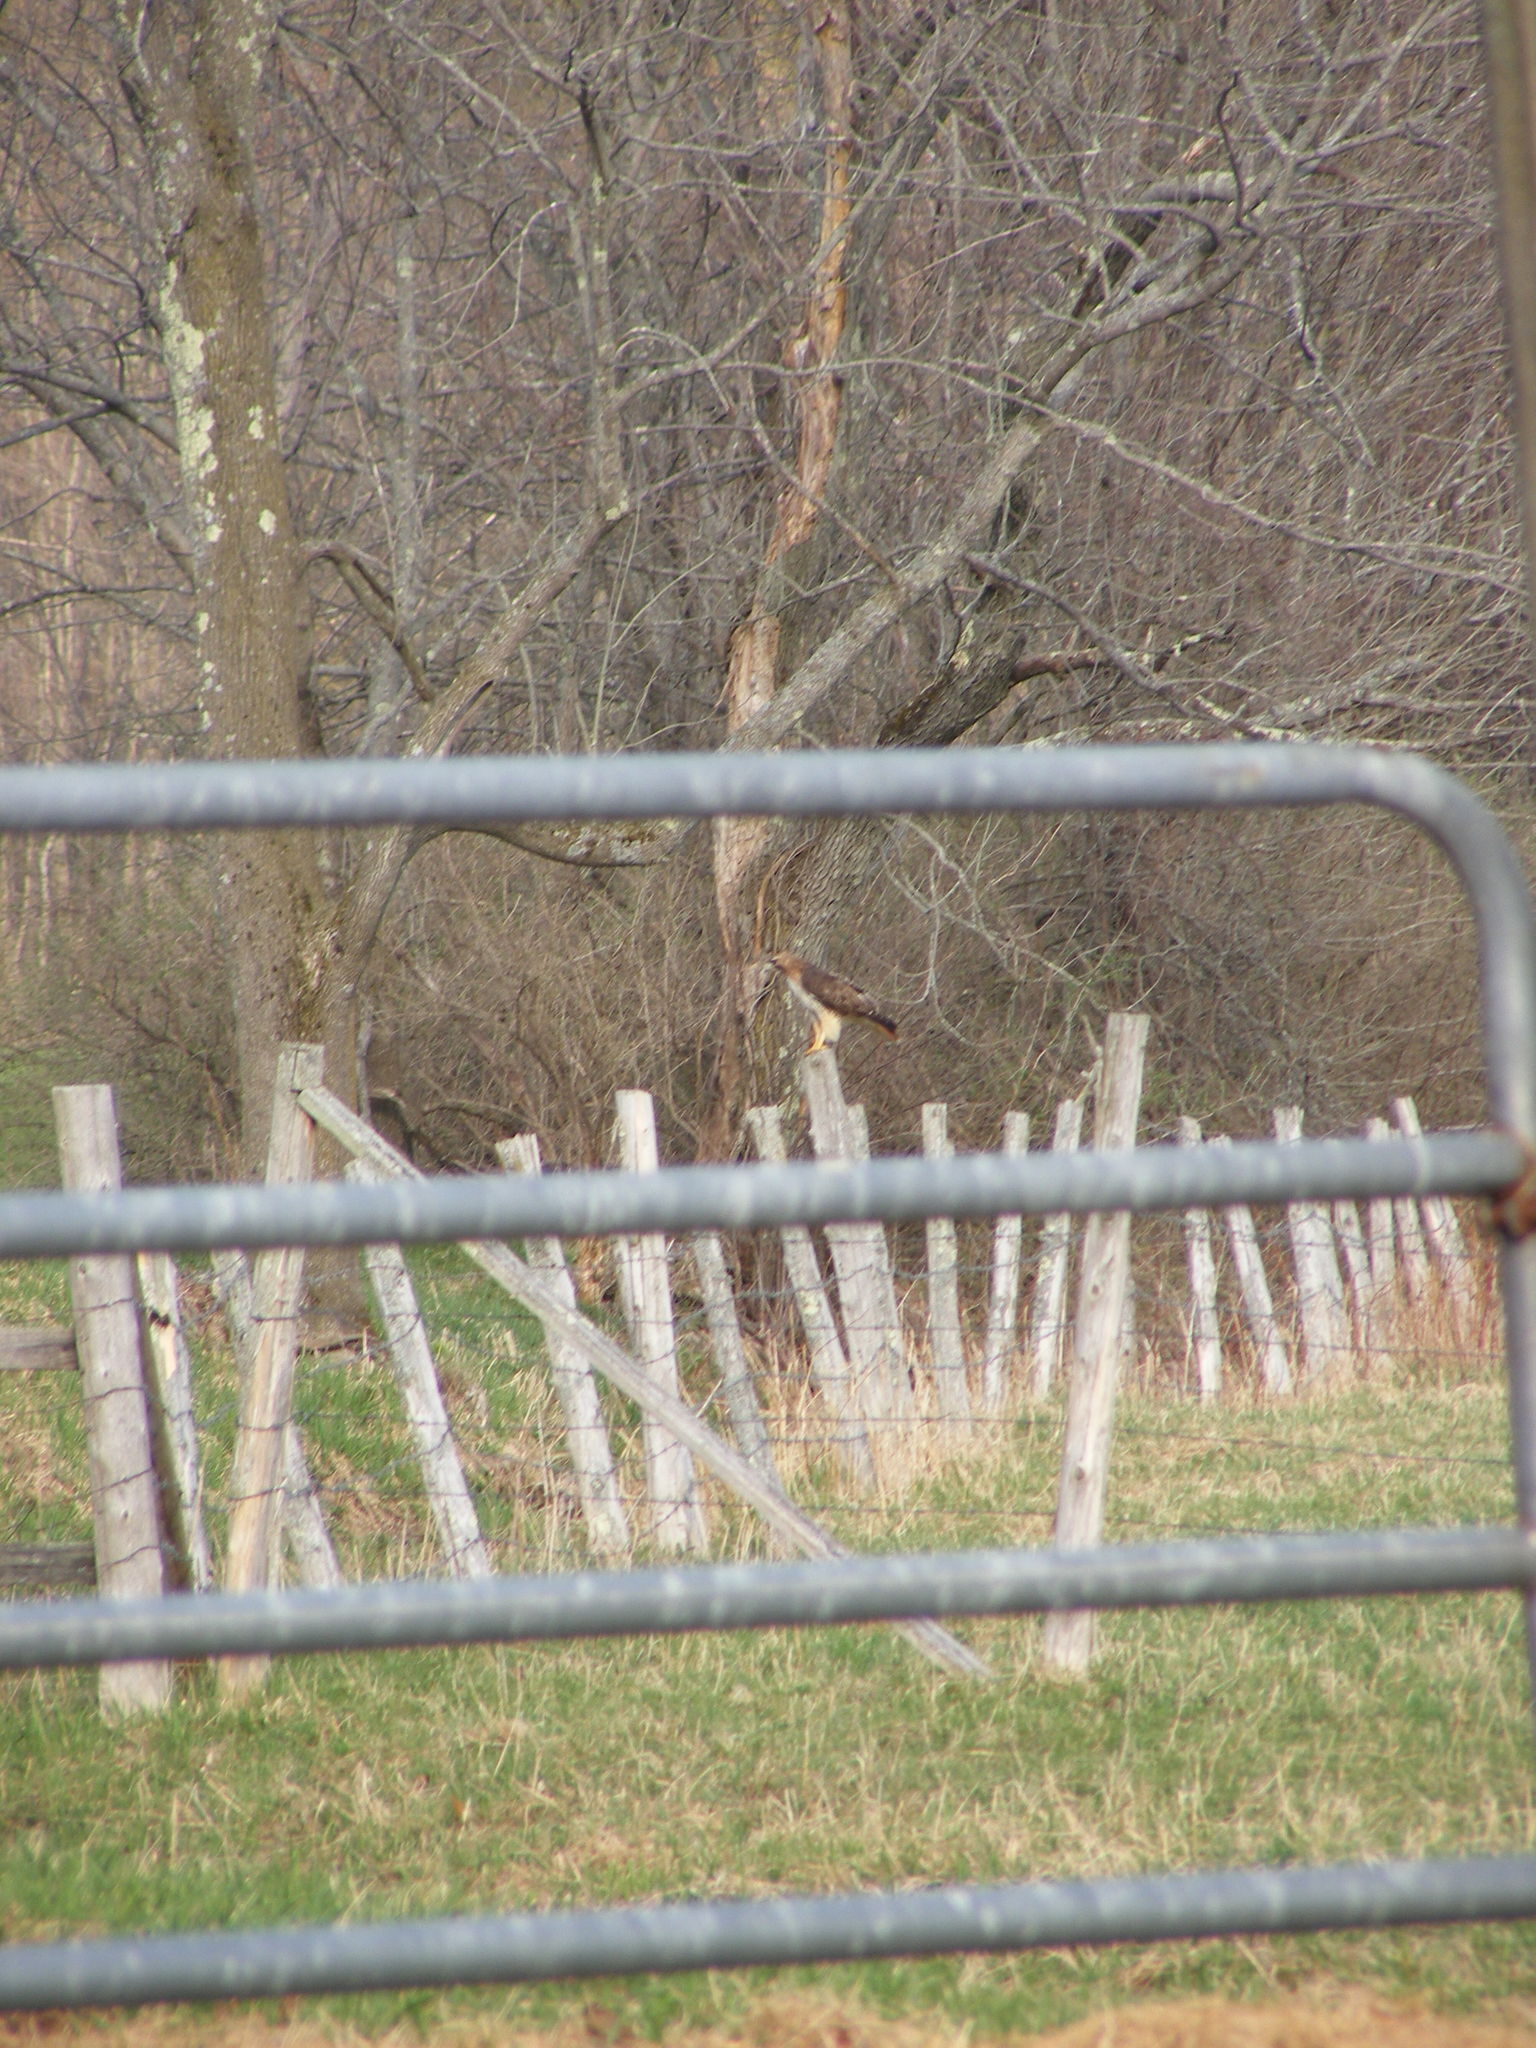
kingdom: Animalia
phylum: Chordata
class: Aves
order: Accipitriformes
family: Accipitridae
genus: Buteo
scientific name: Buteo jamaicensis
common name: Red-tailed hawk
